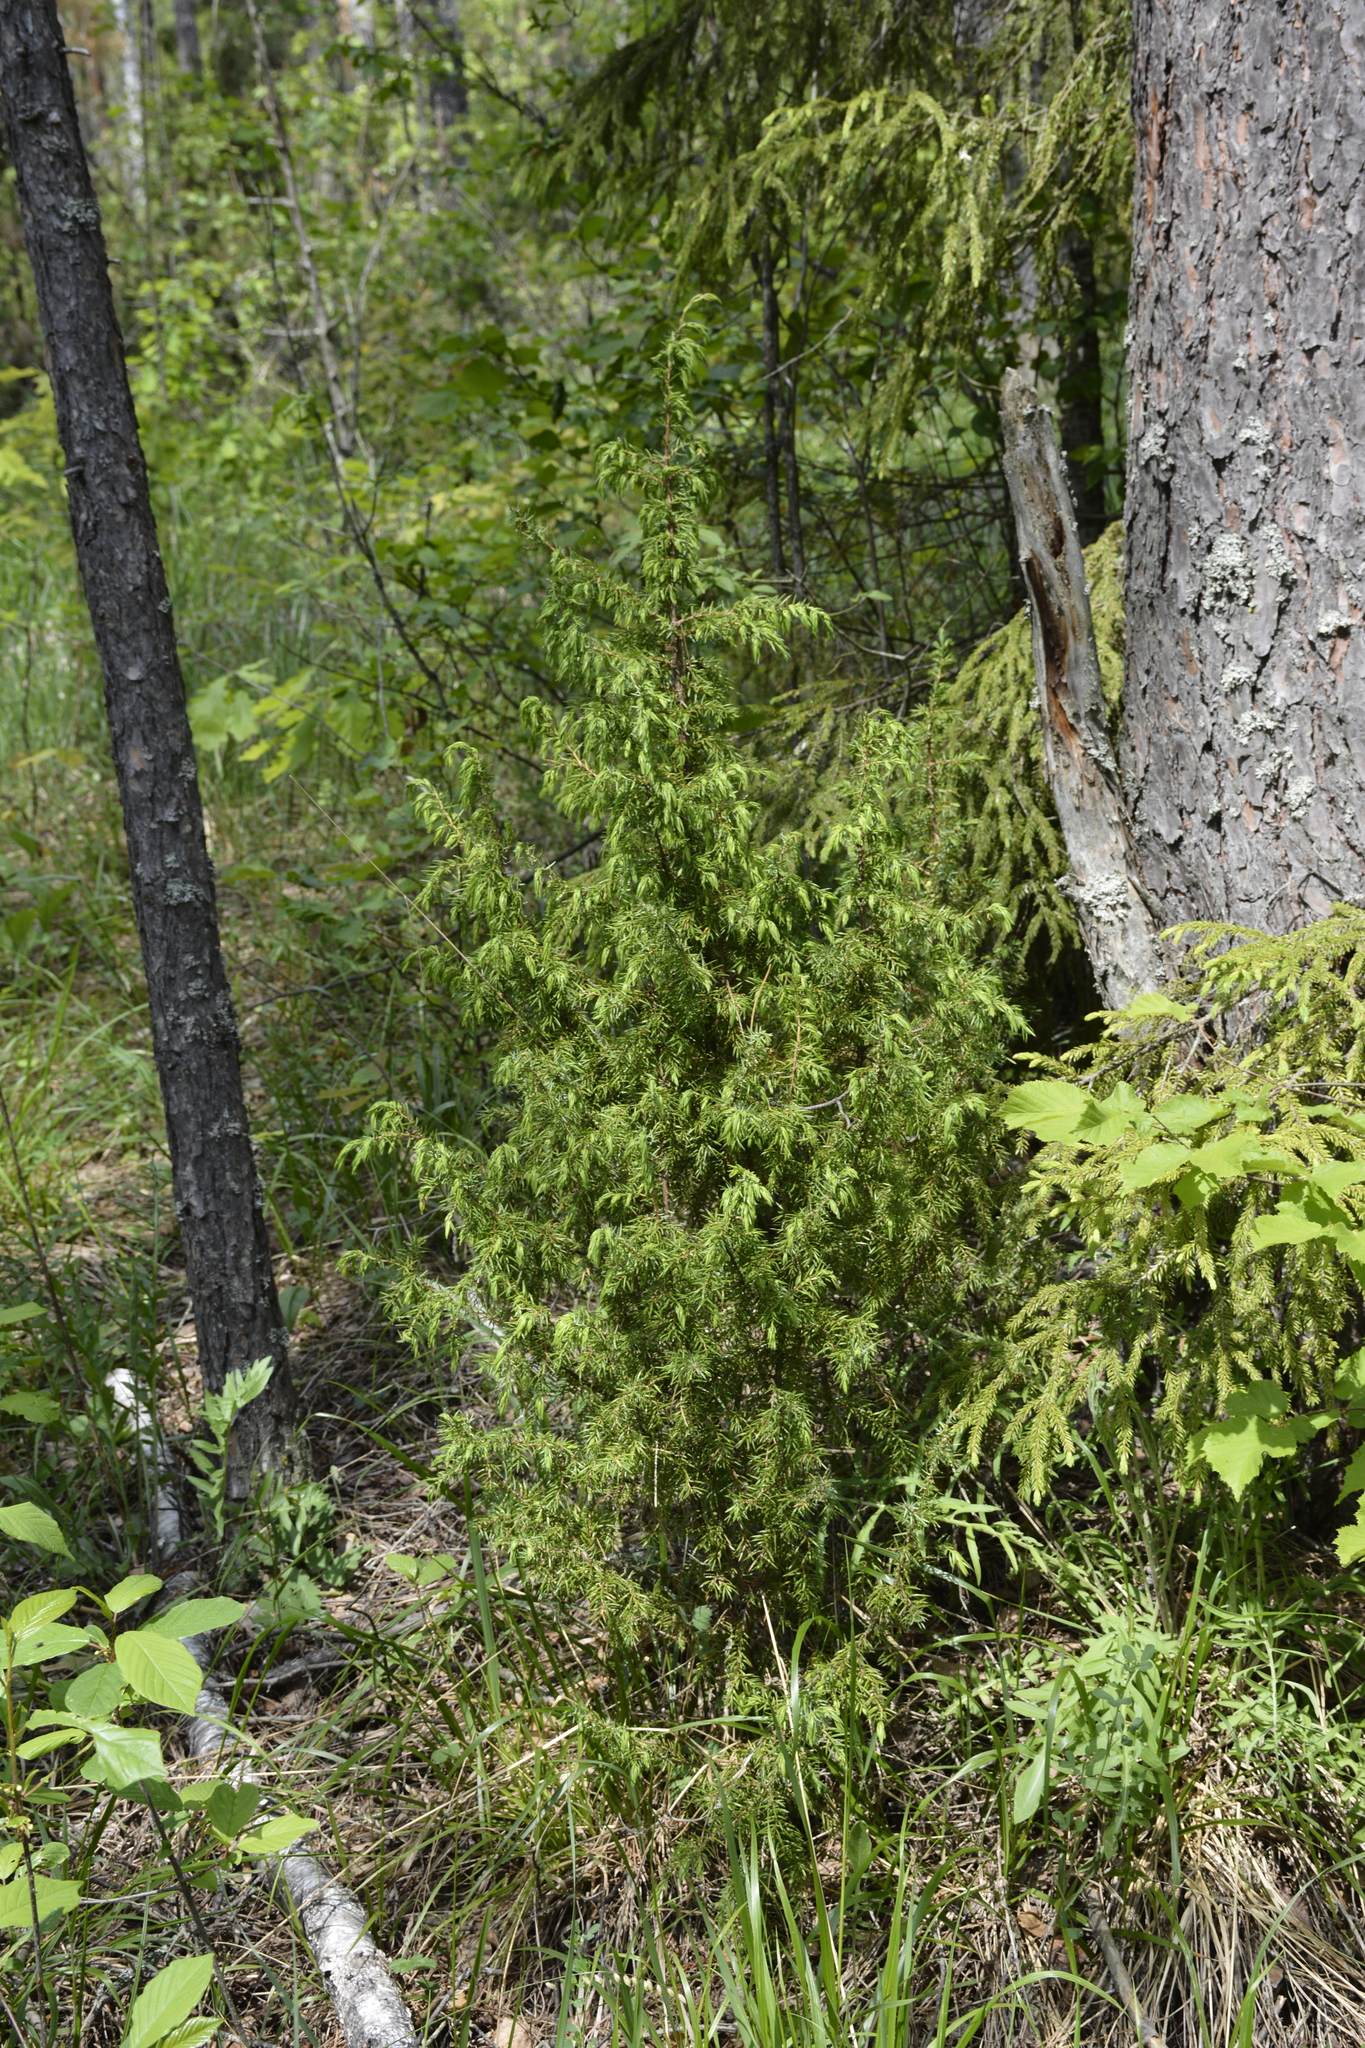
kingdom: Plantae
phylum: Tracheophyta
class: Pinopsida
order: Pinales
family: Cupressaceae
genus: Juniperus
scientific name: Juniperus communis
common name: Common juniper
